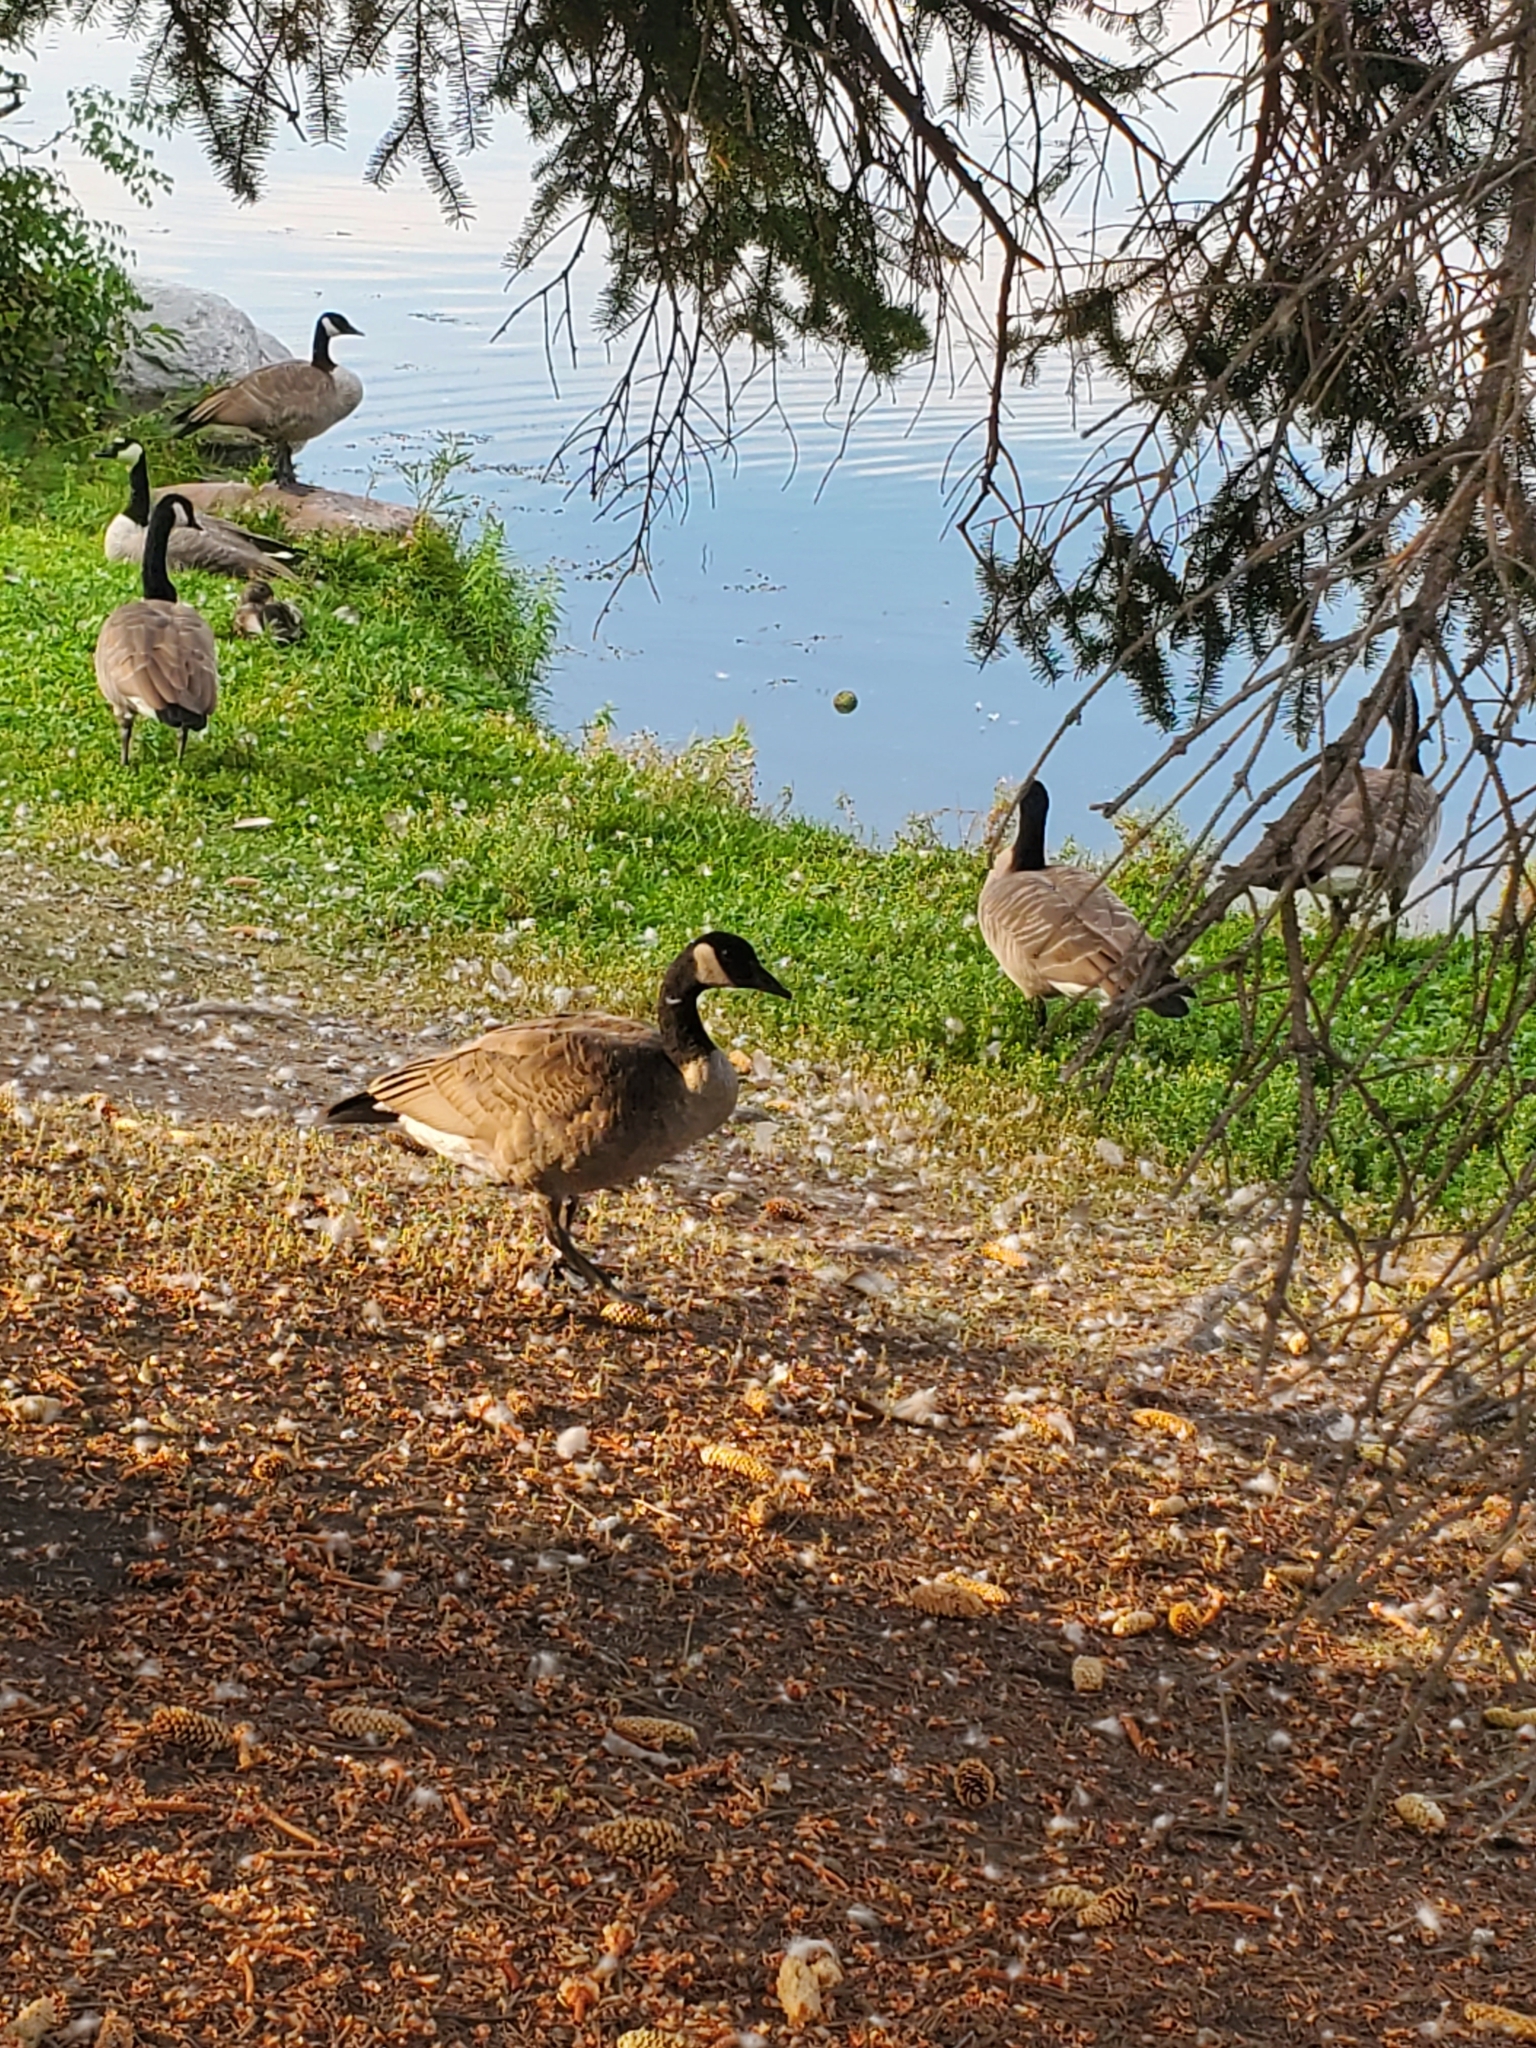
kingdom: Animalia
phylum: Chordata
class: Aves
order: Anseriformes
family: Anatidae
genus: Branta
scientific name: Branta canadensis
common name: Canada goose
